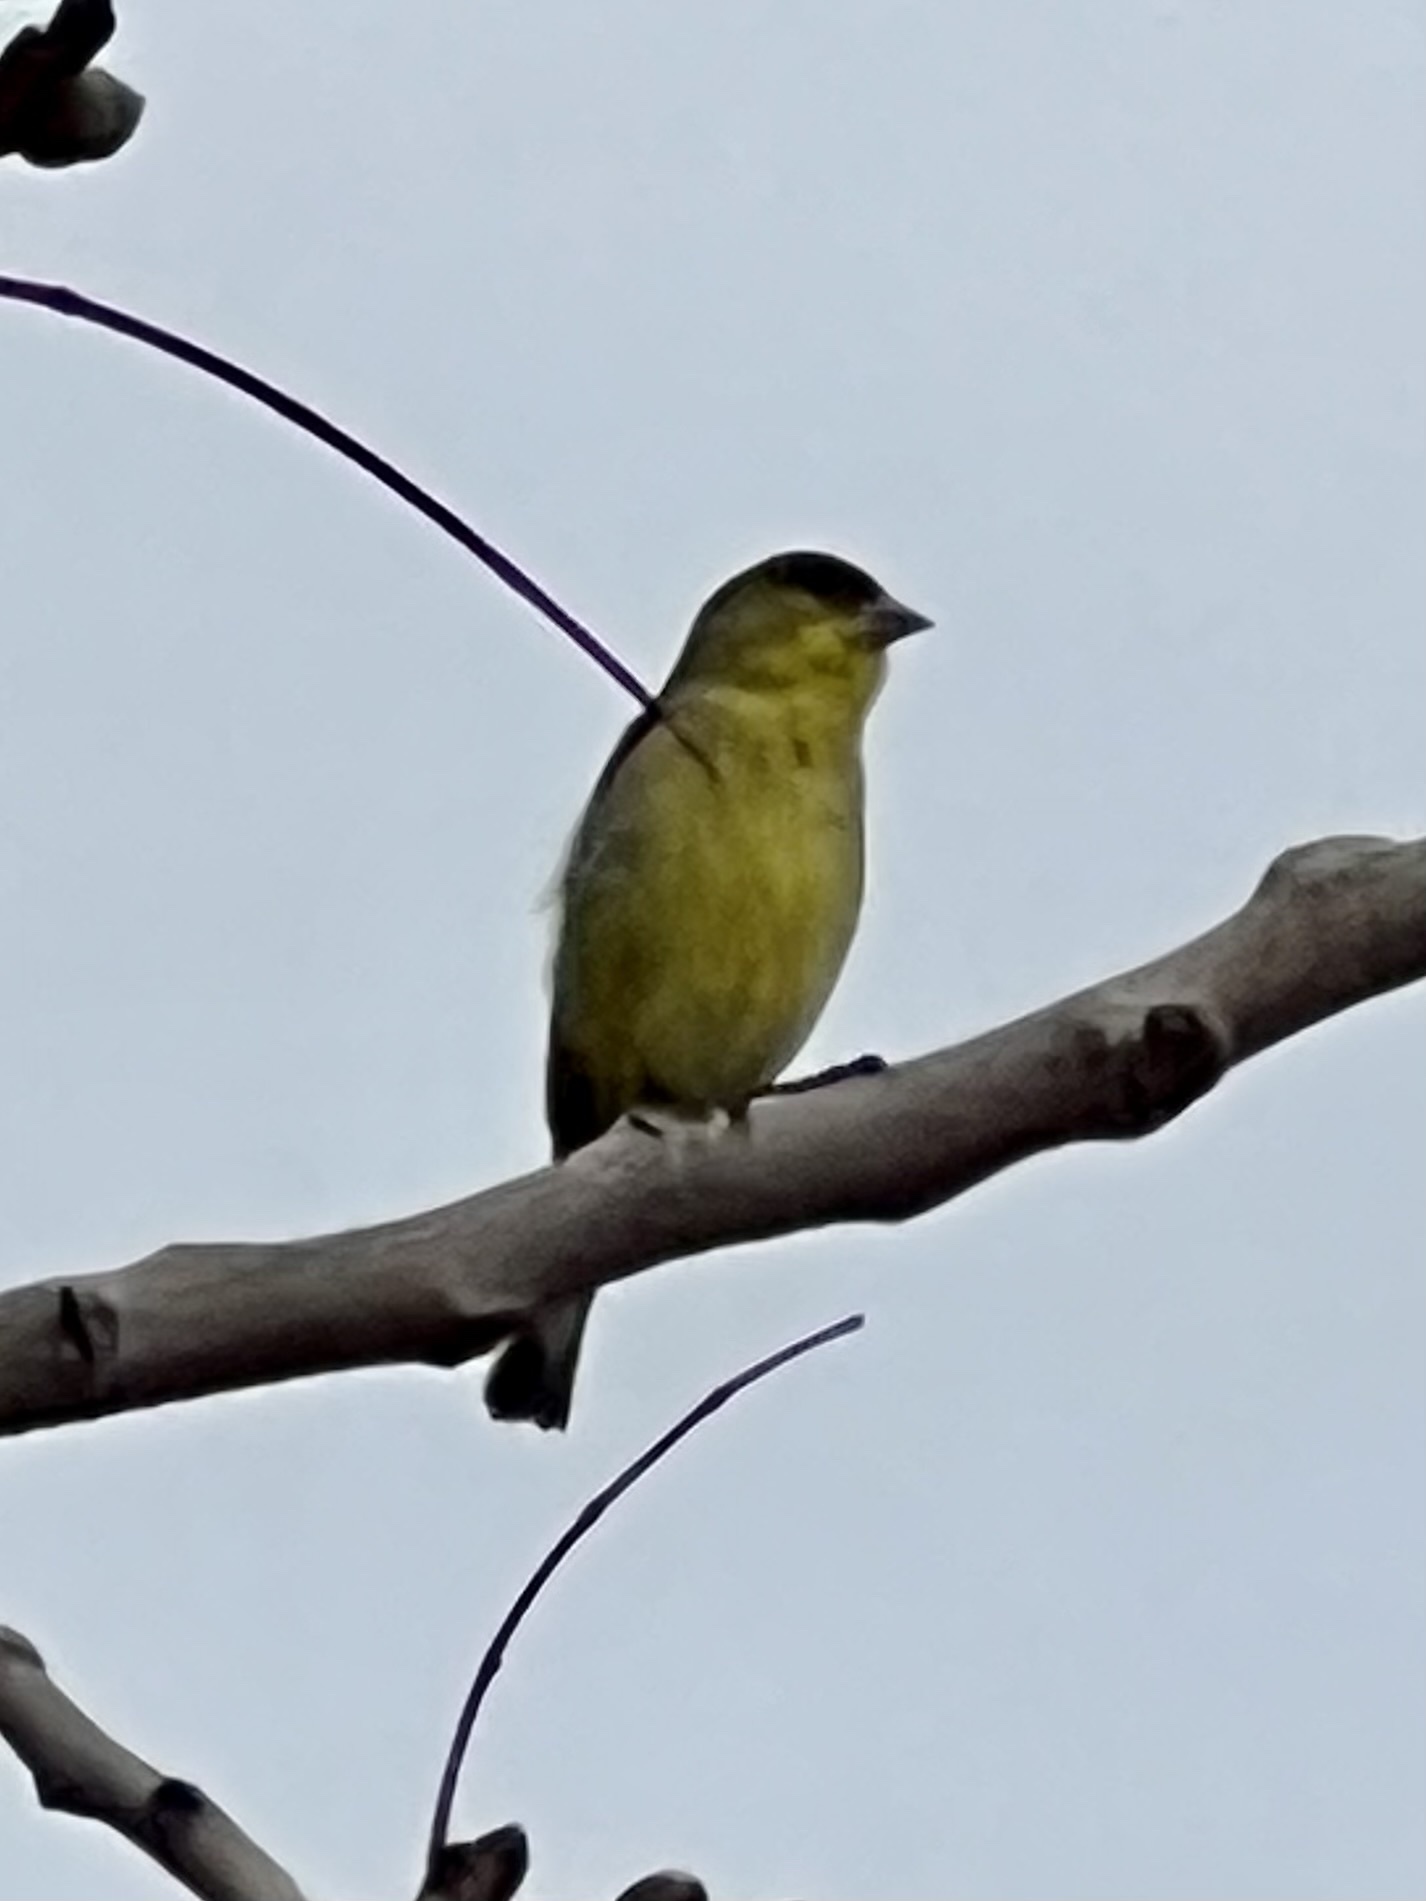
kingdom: Animalia
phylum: Chordata
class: Aves
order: Passeriformes
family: Fringillidae
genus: Spinus
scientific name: Spinus psaltria
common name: Lesser goldfinch
